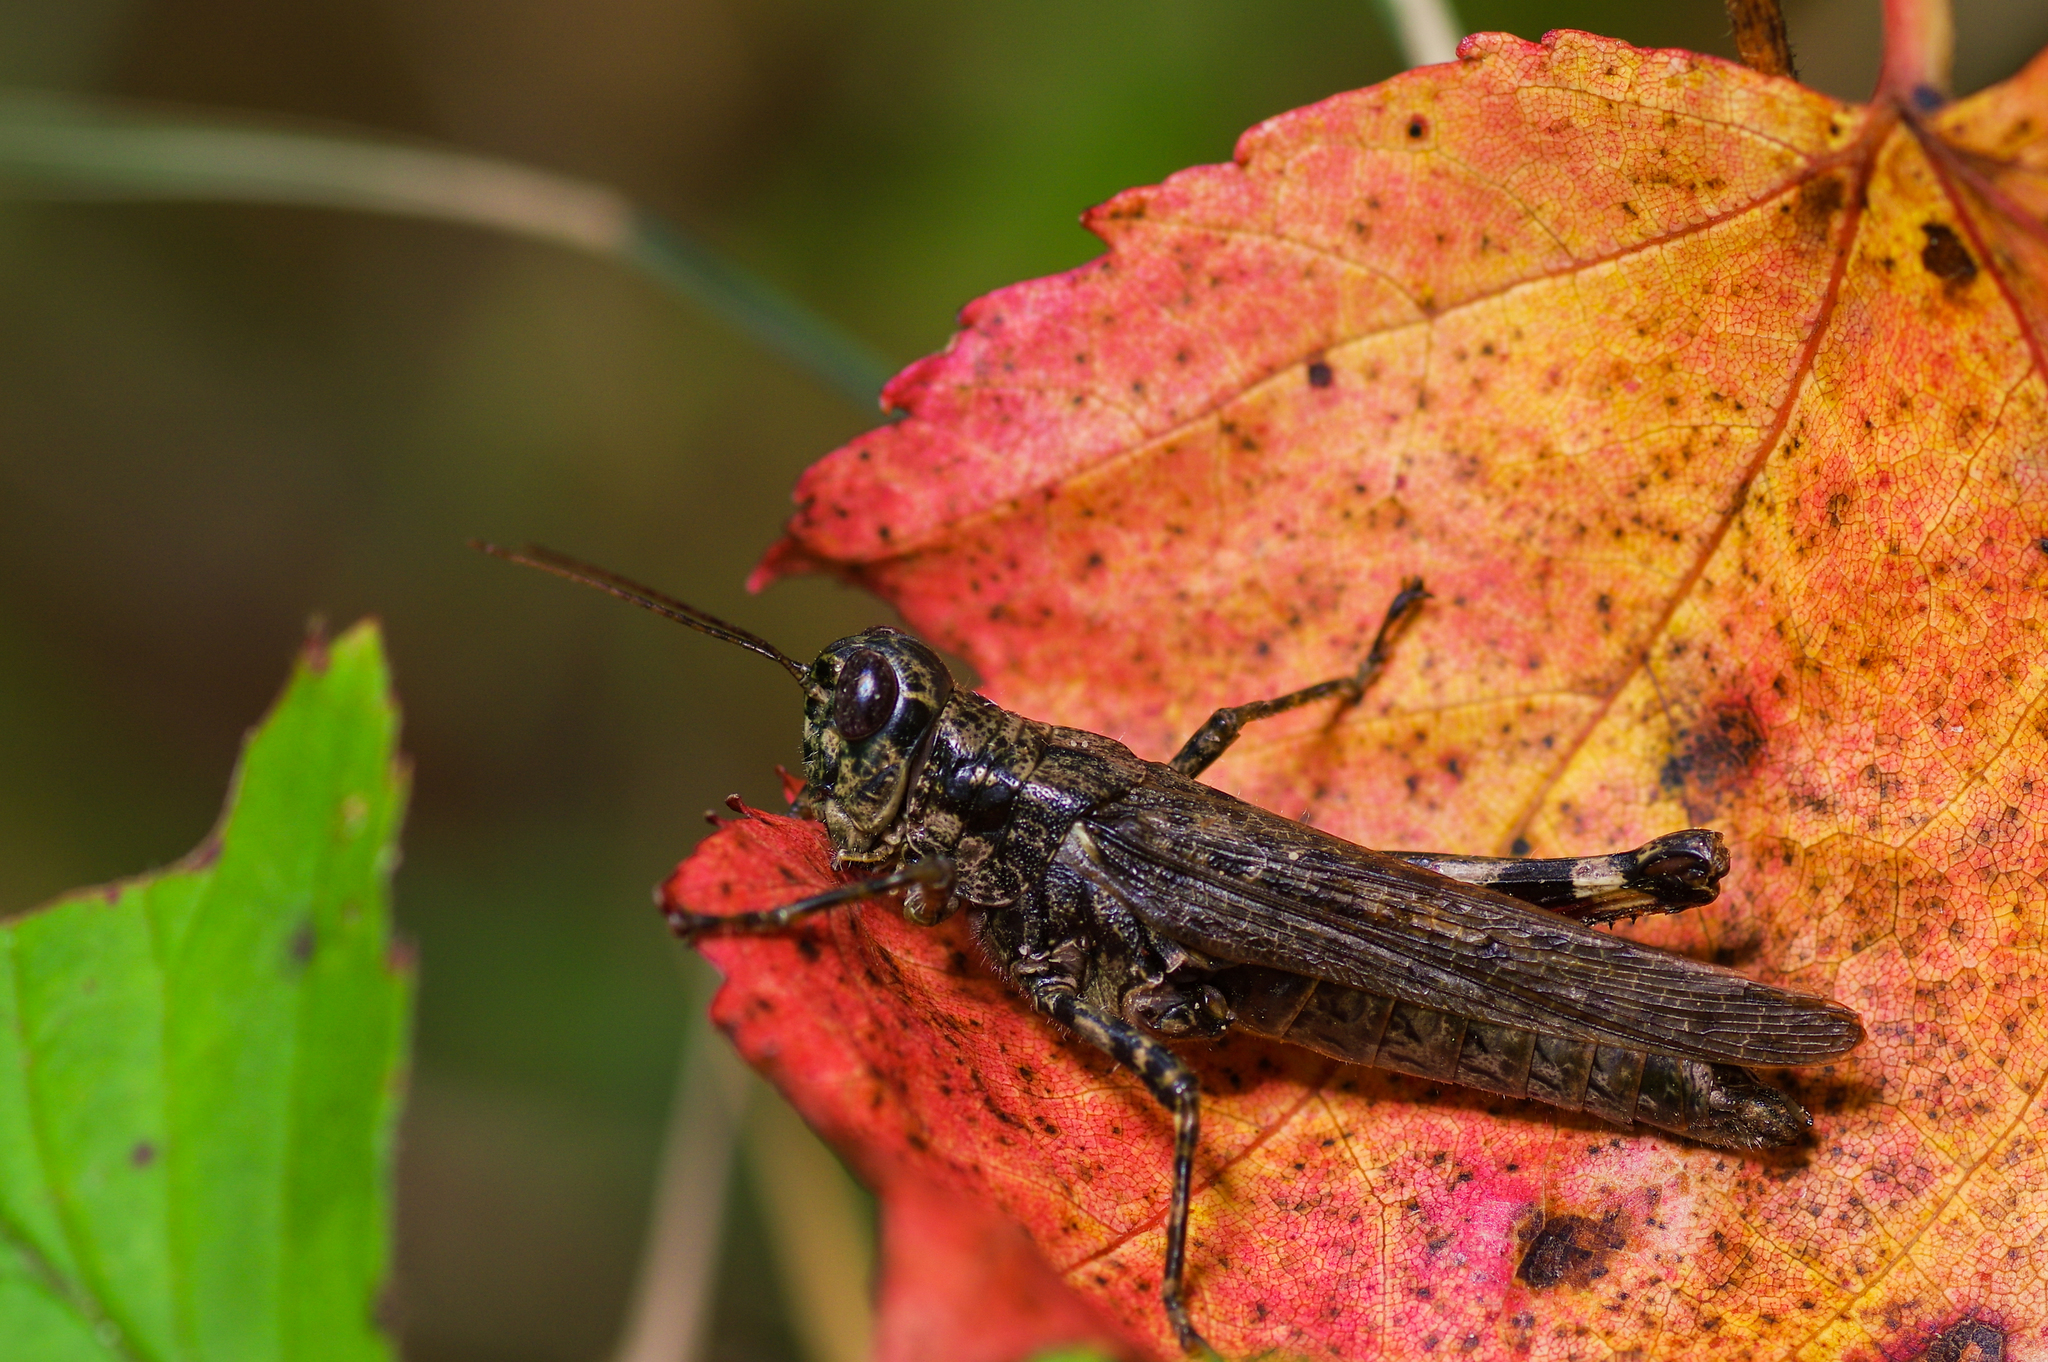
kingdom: Animalia
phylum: Arthropoda
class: Insecta
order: Orthoptera
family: Acrididae
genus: Melanoplus
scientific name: Melanoplus punctulatus
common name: Pine-tree spur-throat grasshopper
